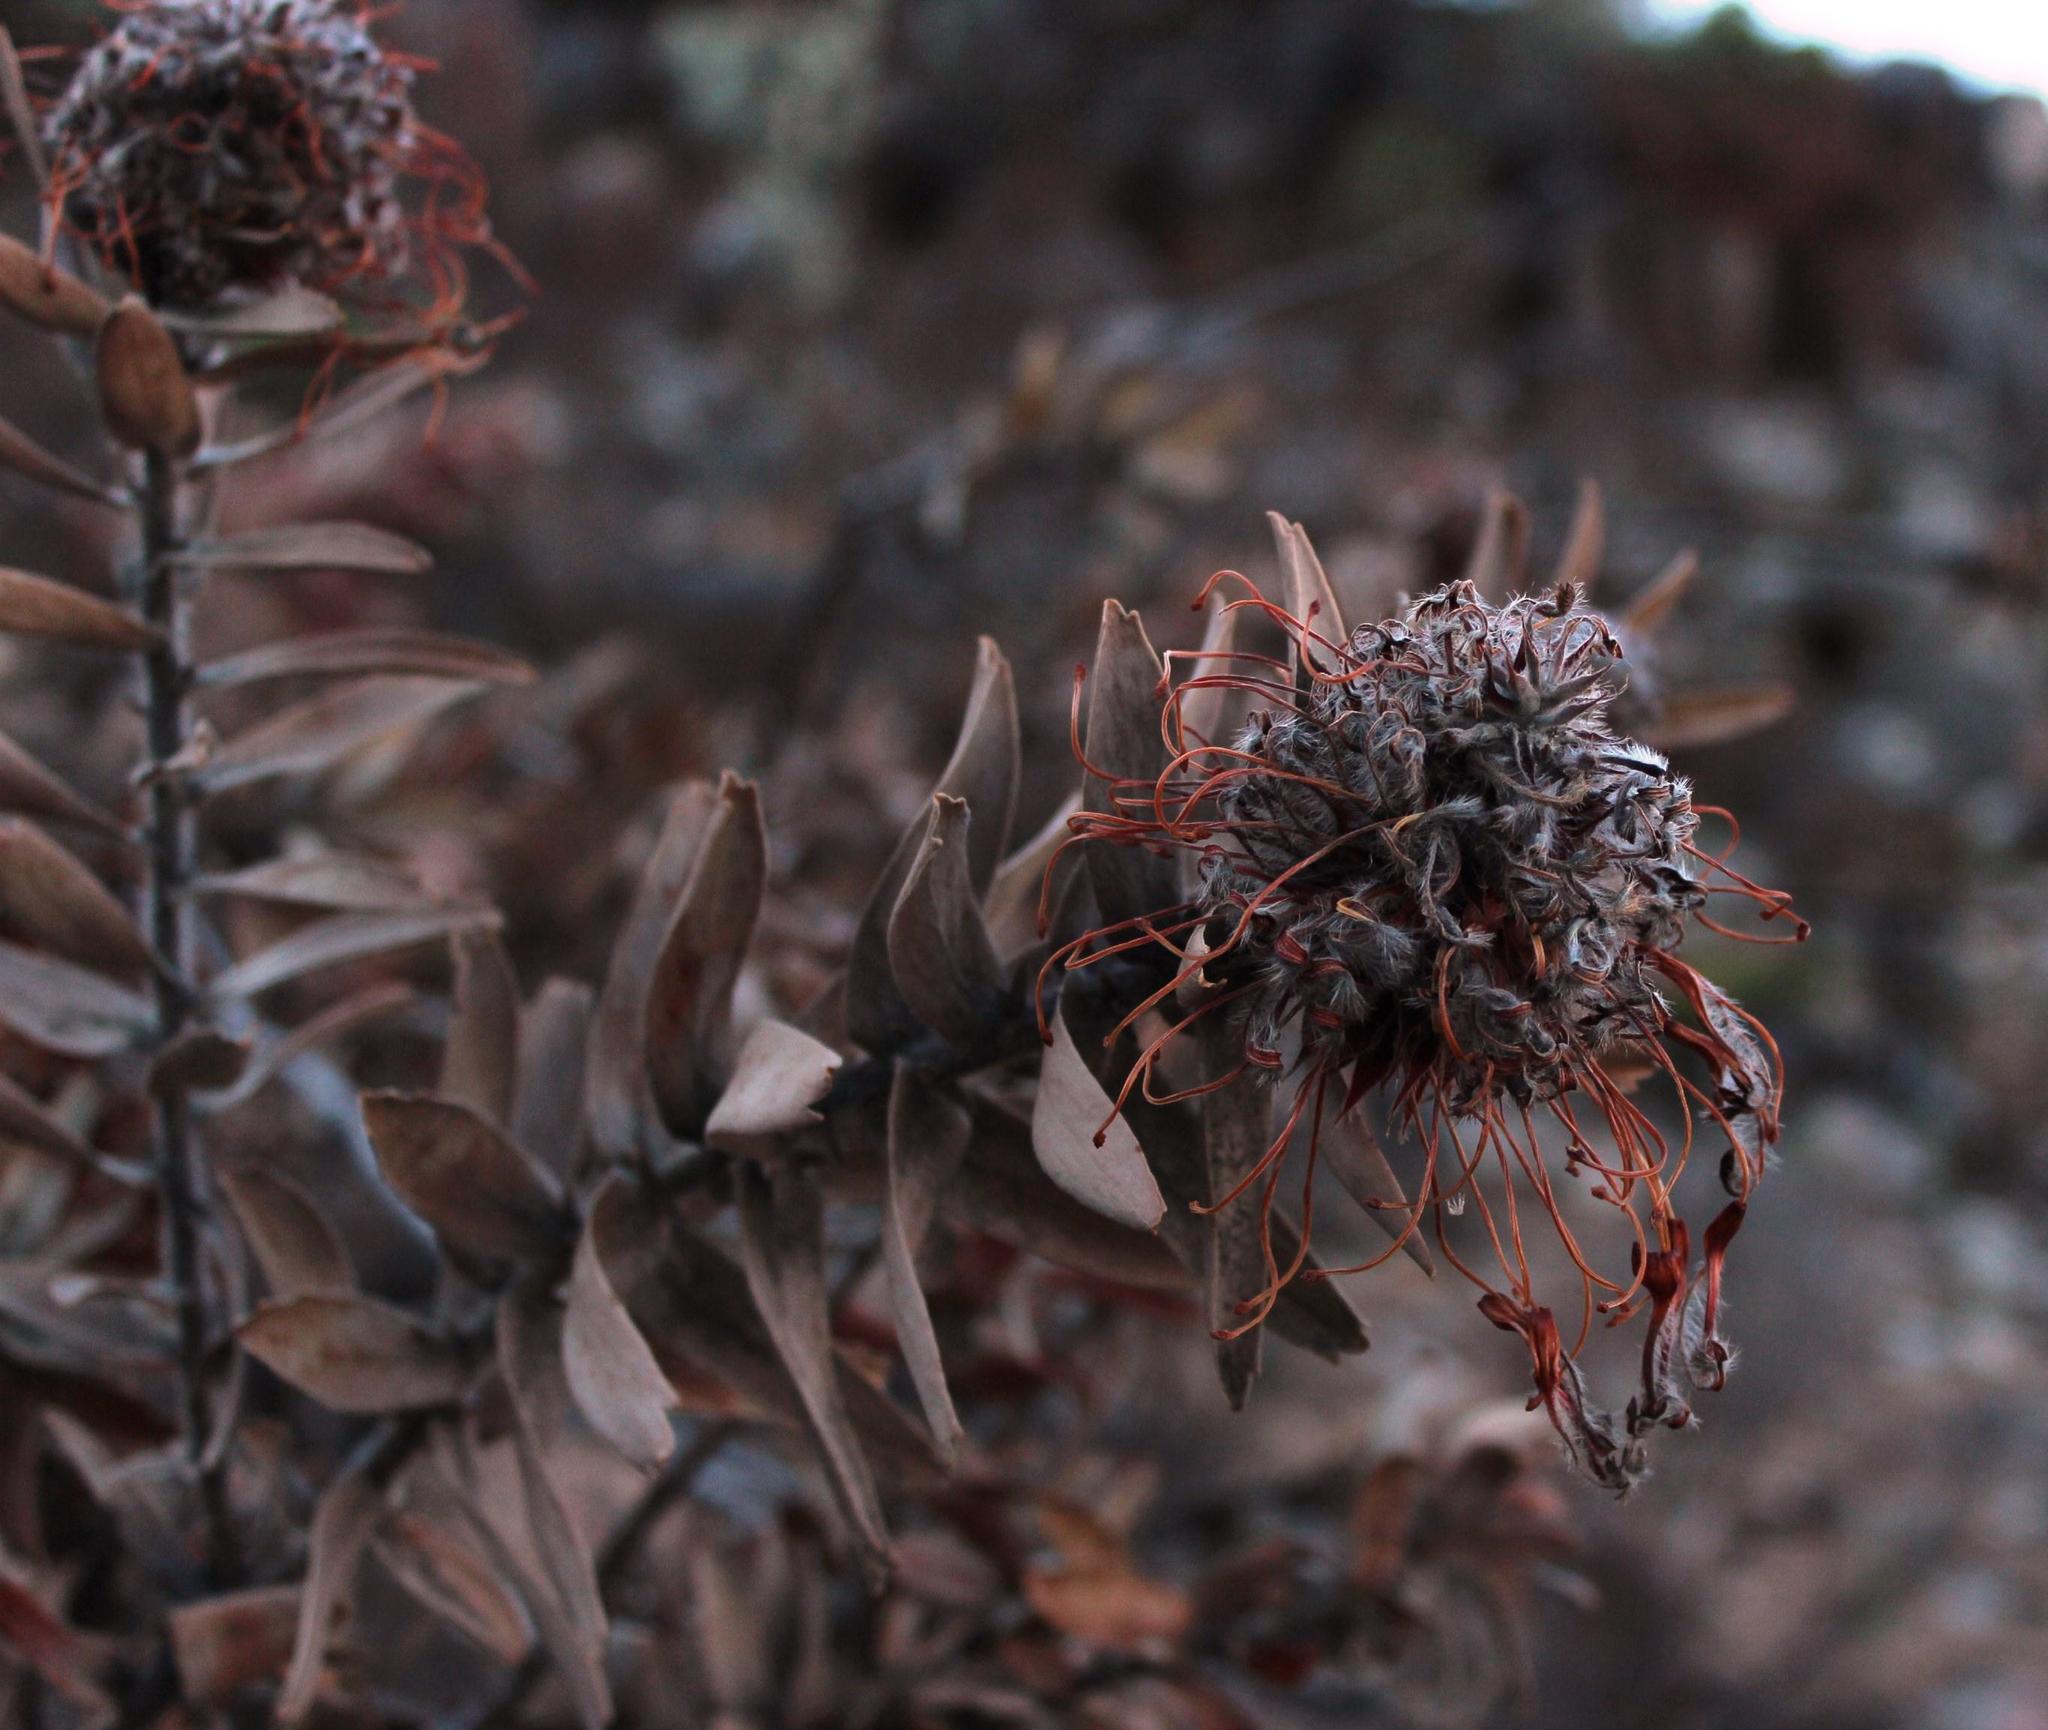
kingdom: Plantae
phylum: Tracheophyta
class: Magnoliopsida
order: Proteales
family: Proteaceae
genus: Leucospermum
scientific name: Leucospermum vestitum
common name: Silky-hair pincushion
